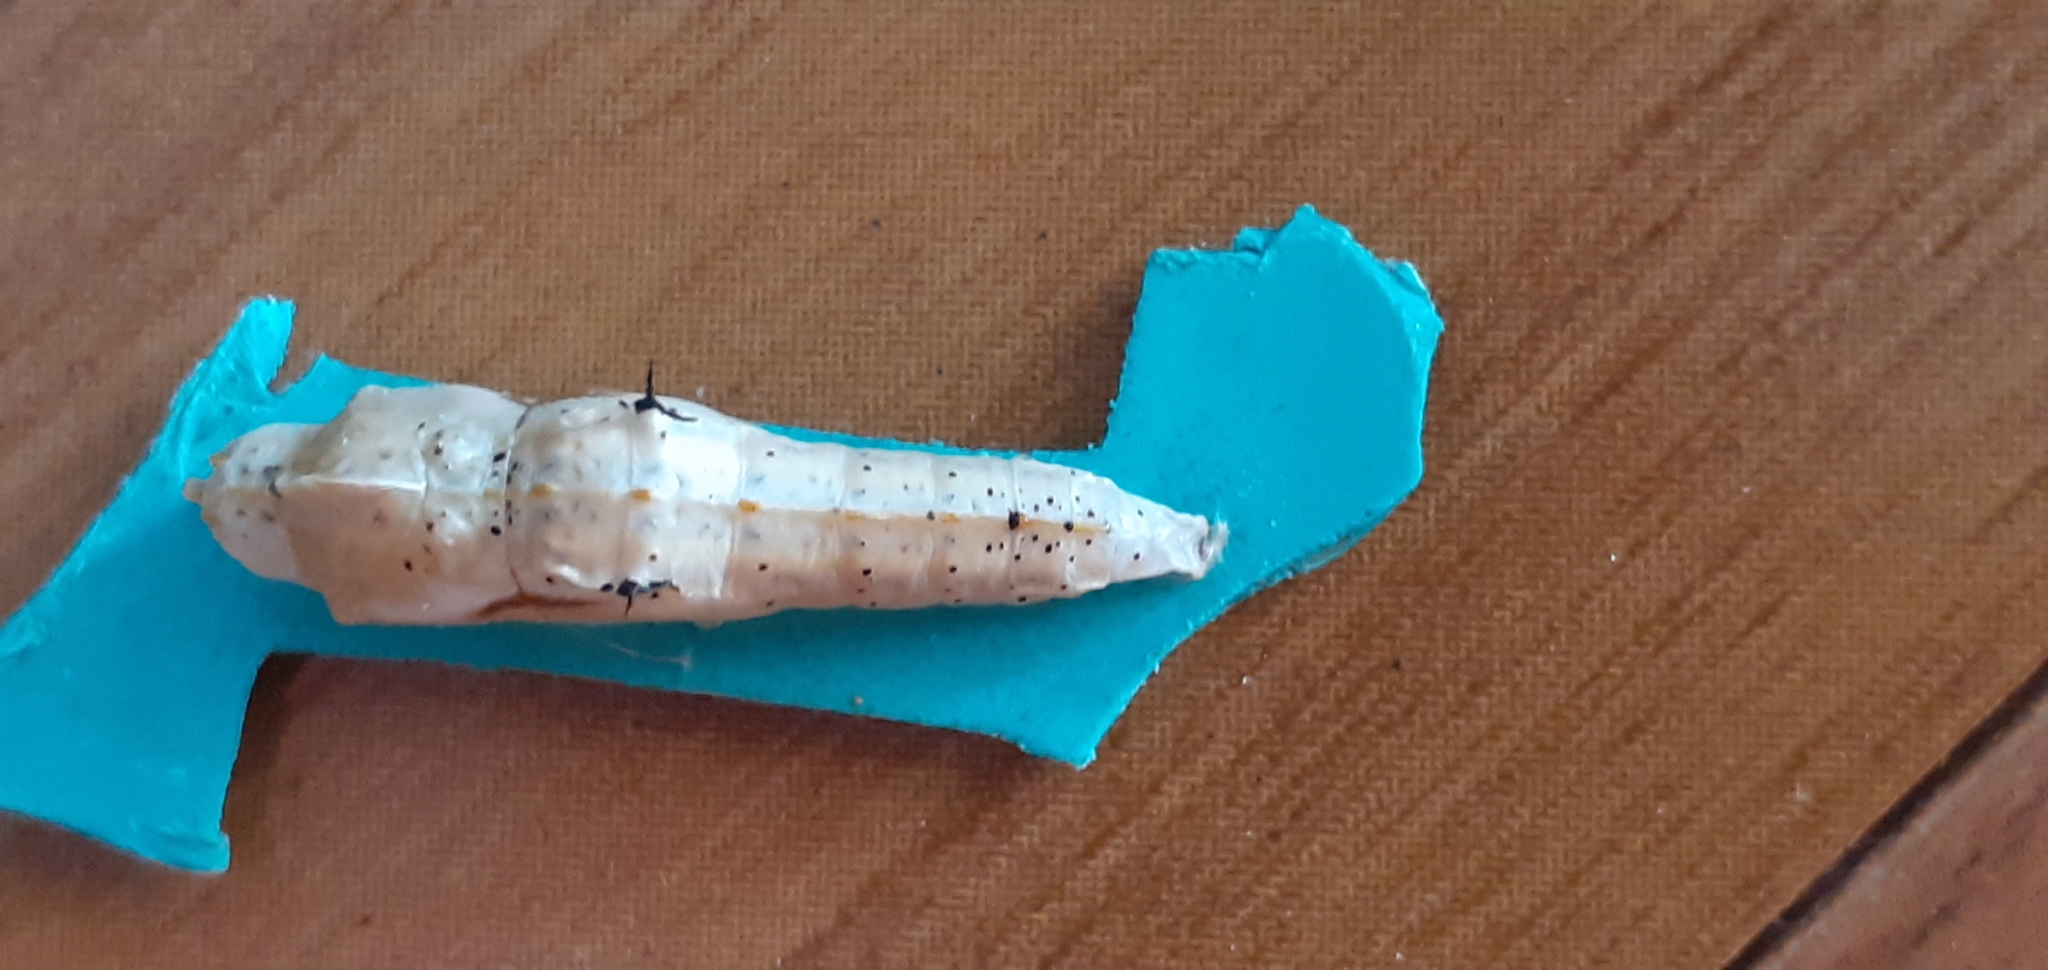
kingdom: Animalia
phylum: Arthropoda
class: Insecta
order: Lepidoptera
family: Pieridae
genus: Ascia
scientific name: Ascia monuste
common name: Great southern white
